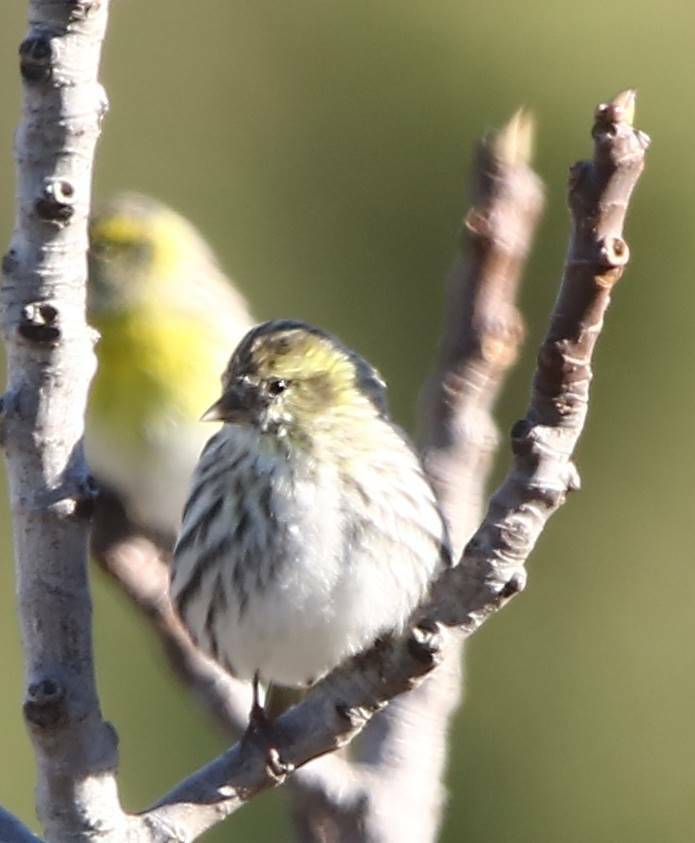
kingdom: Animalia
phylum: Chordata
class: Aves
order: Passeriformes
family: Fringillidae
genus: Spinus
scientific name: Spinus spinus
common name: Eurasian siskin
